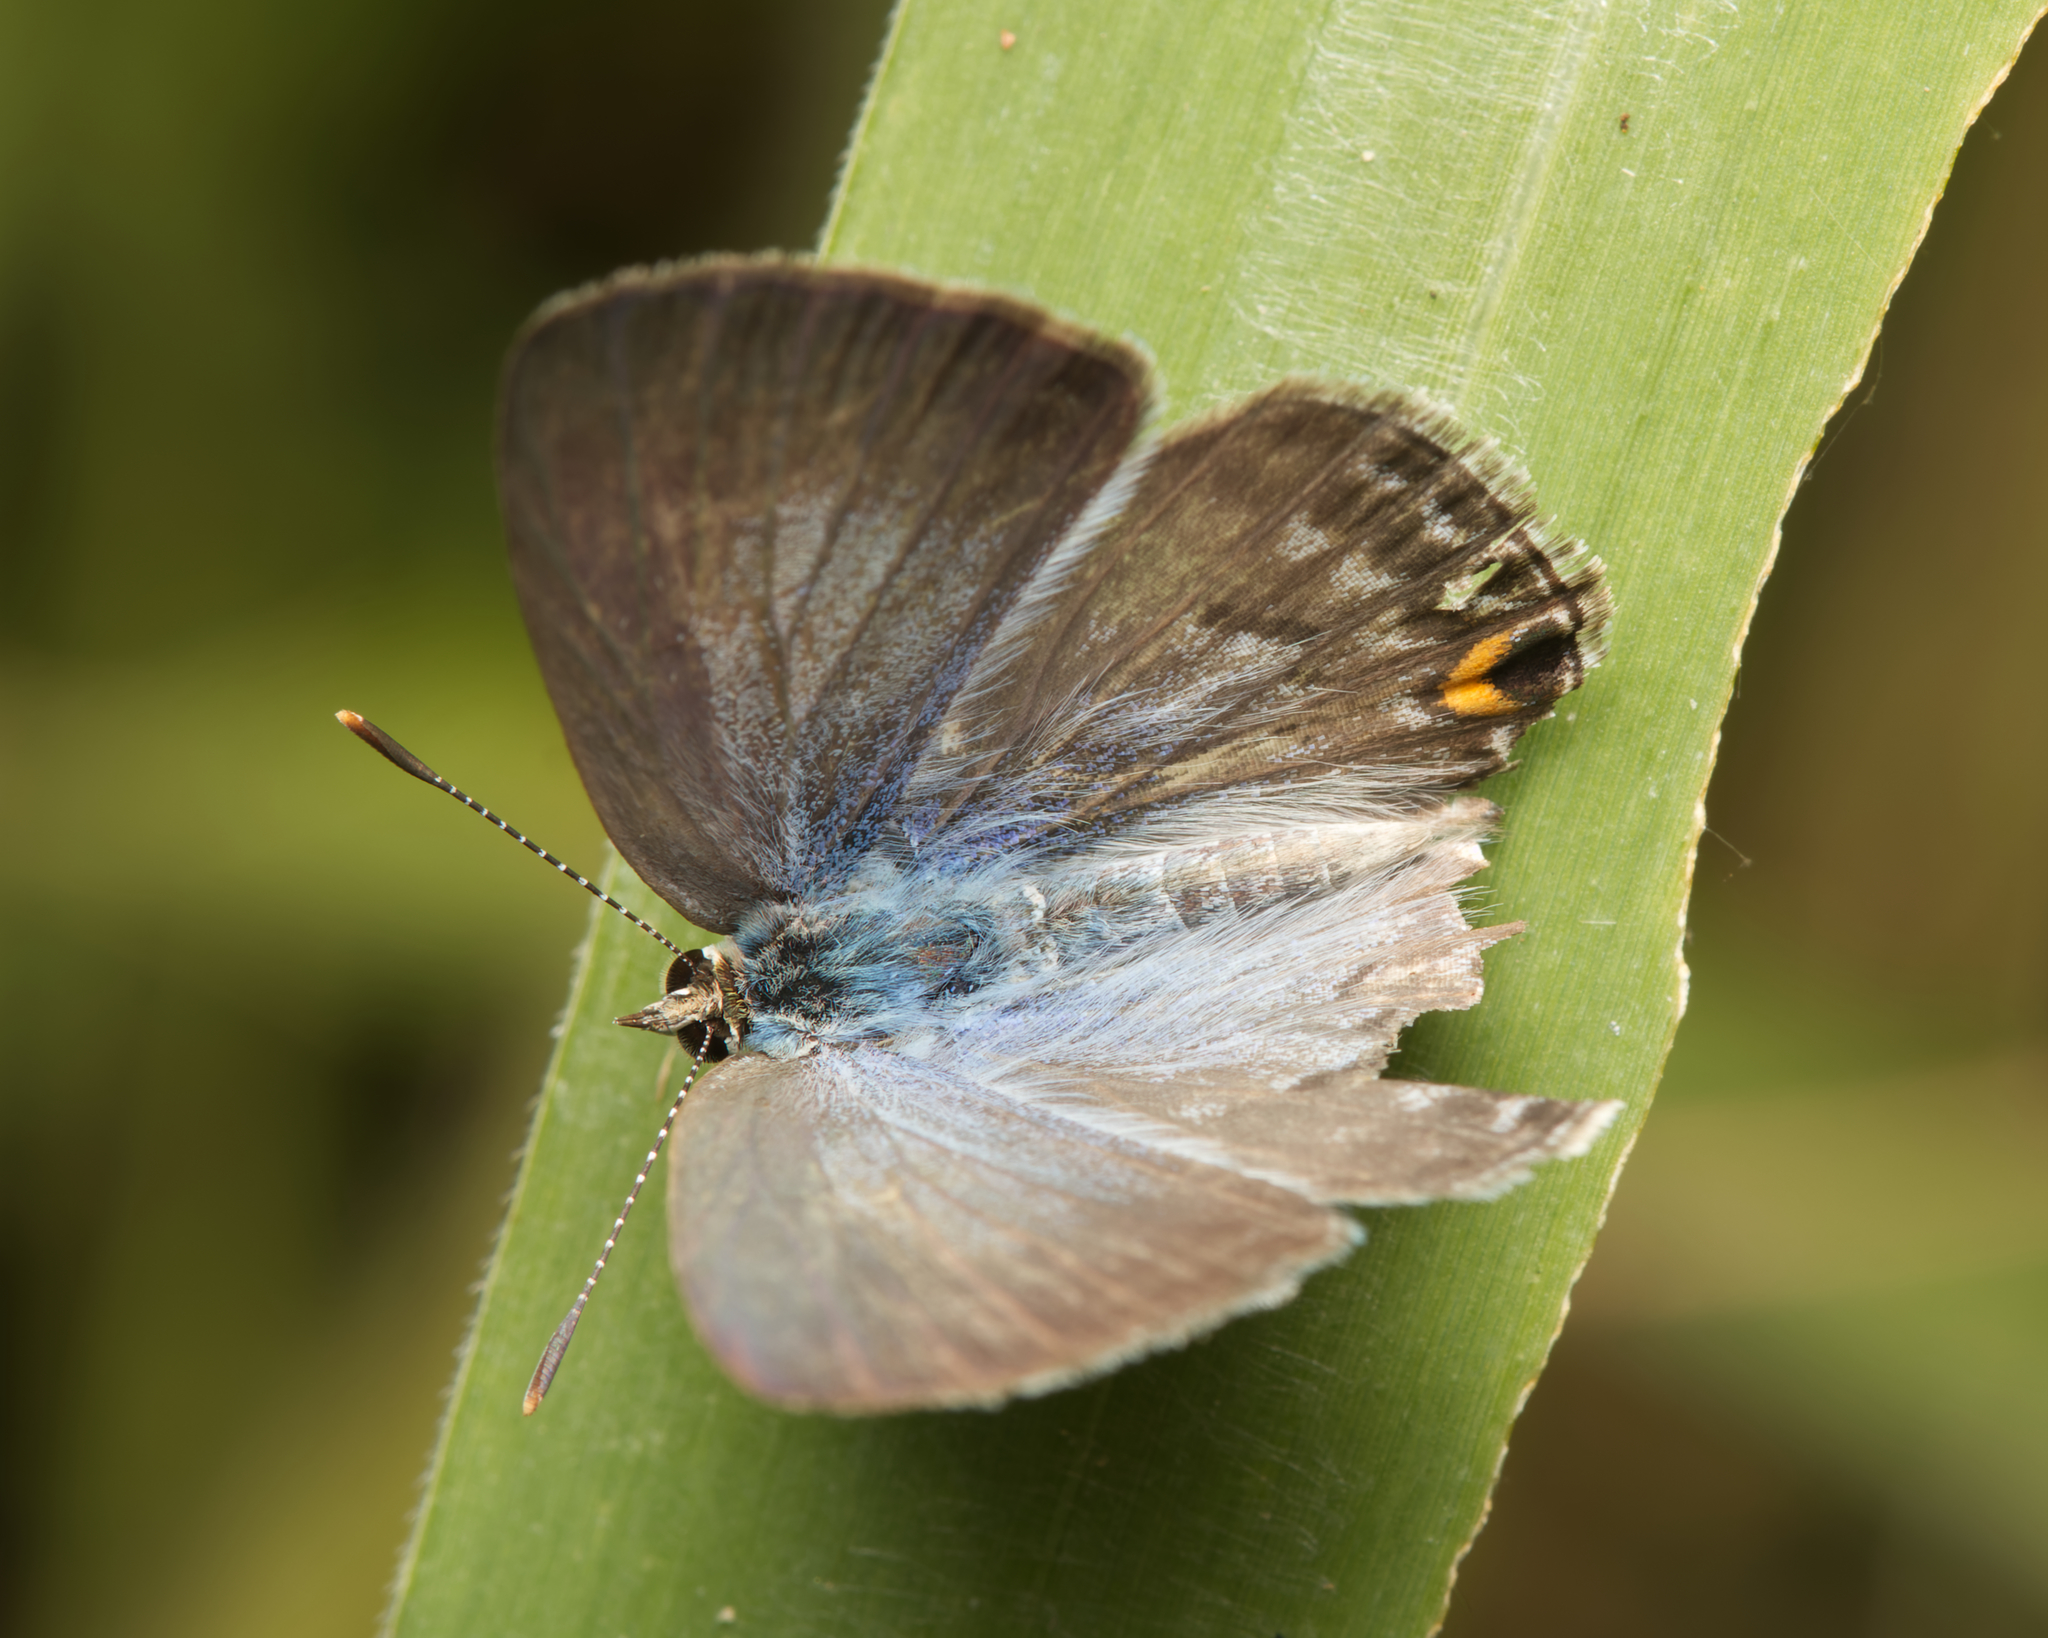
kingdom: Animalia
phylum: Arthropoda
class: Insecta
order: Lepidoptera
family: Lycaenidae
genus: Catochrysops
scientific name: Catochrysops panormus
